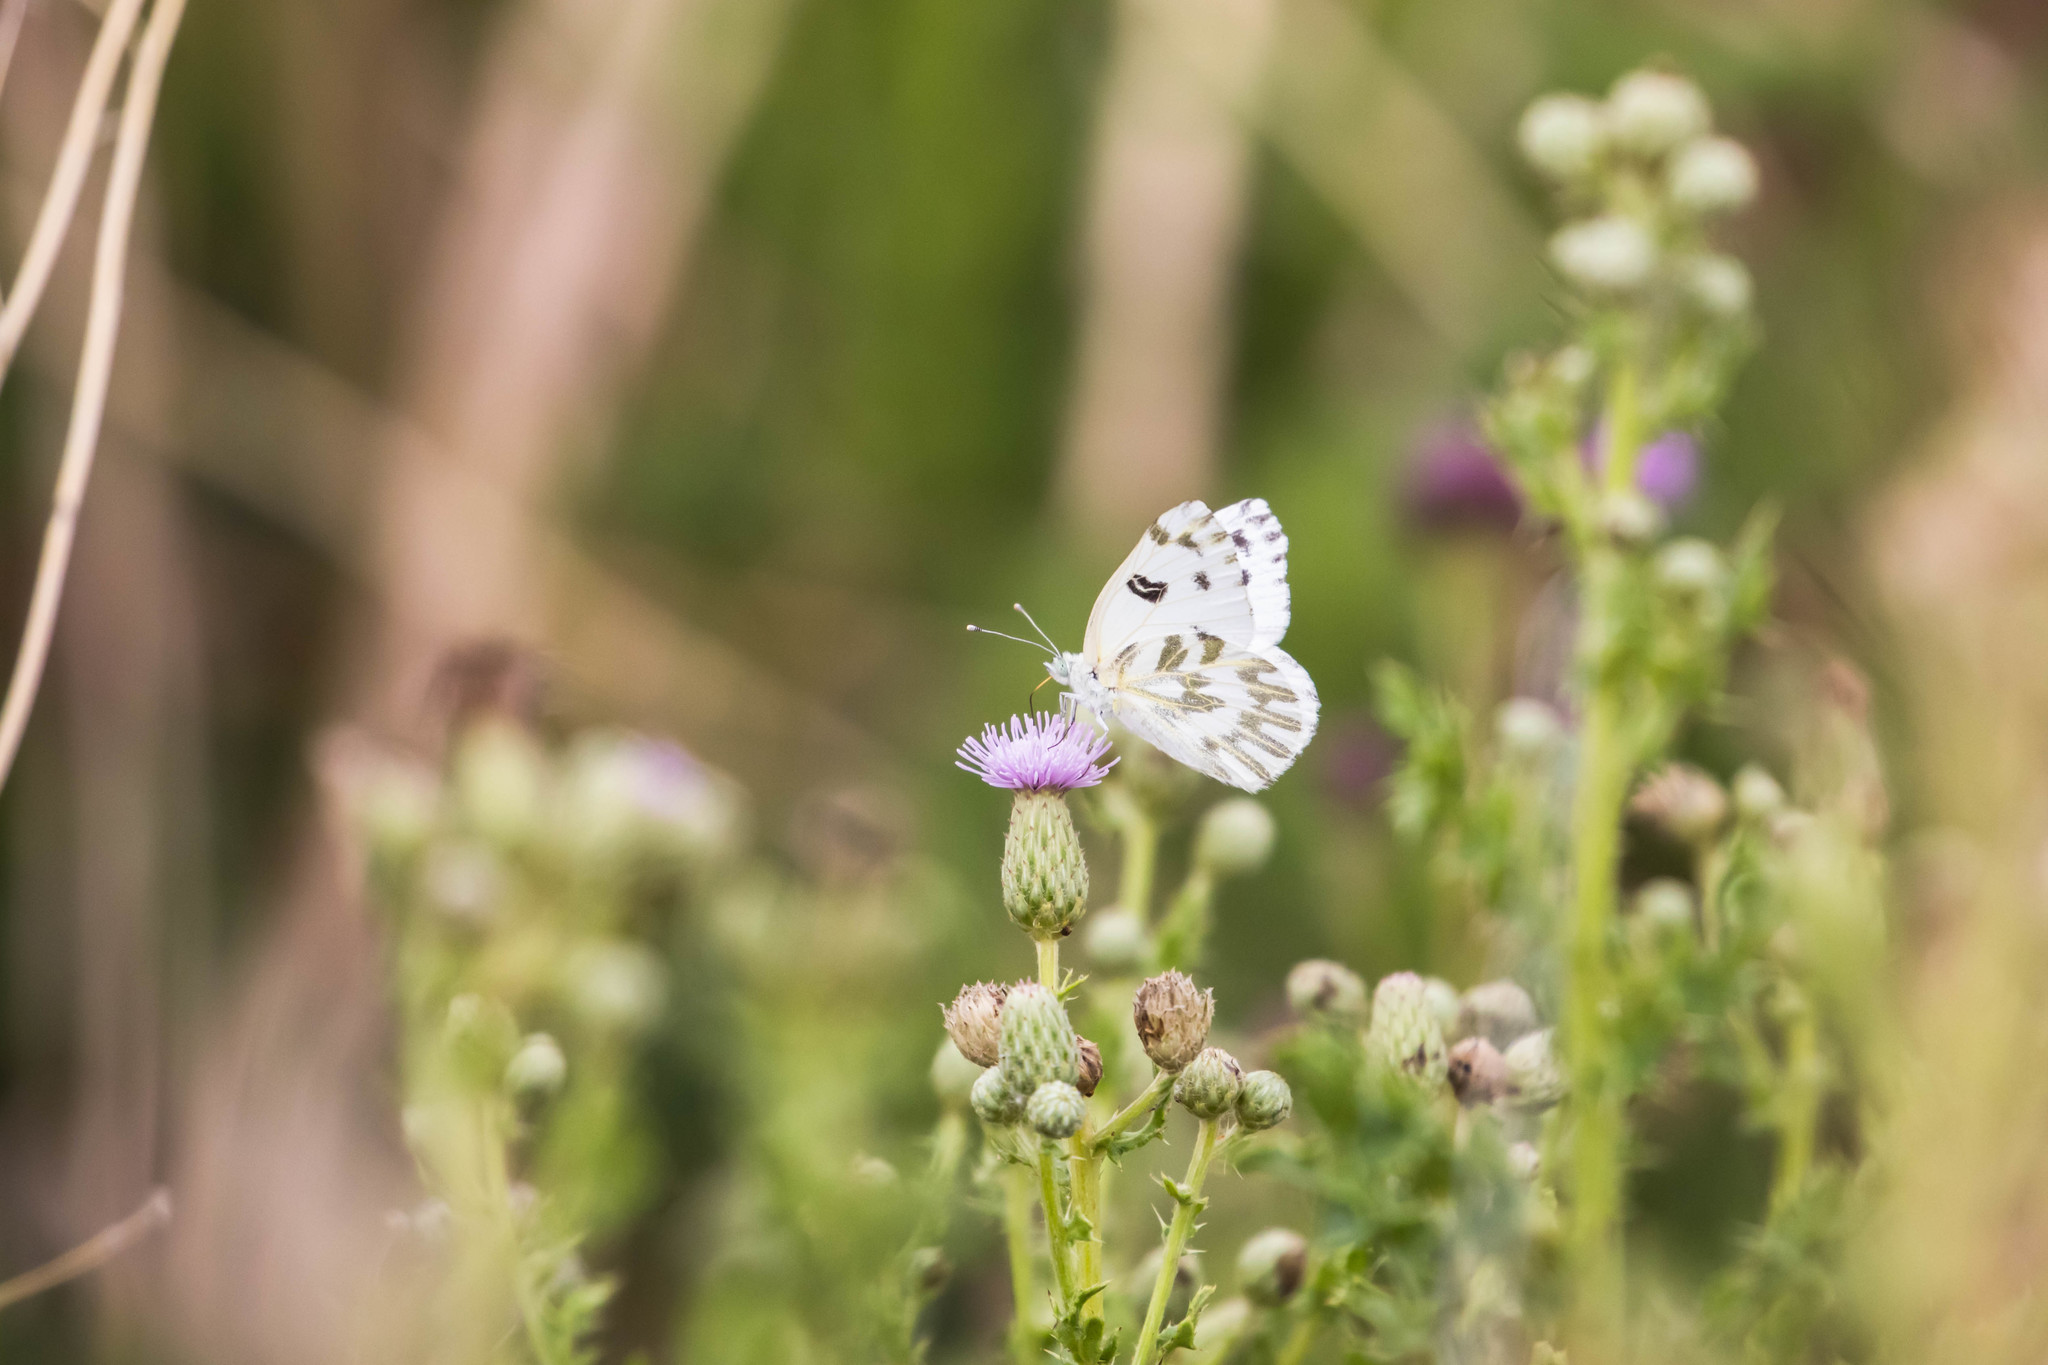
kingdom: Animalia
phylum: Arthropoda
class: Insecta
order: Lepidoptera
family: Pieridae
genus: Pontia
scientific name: Pontia beckerii
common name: Becker's white
